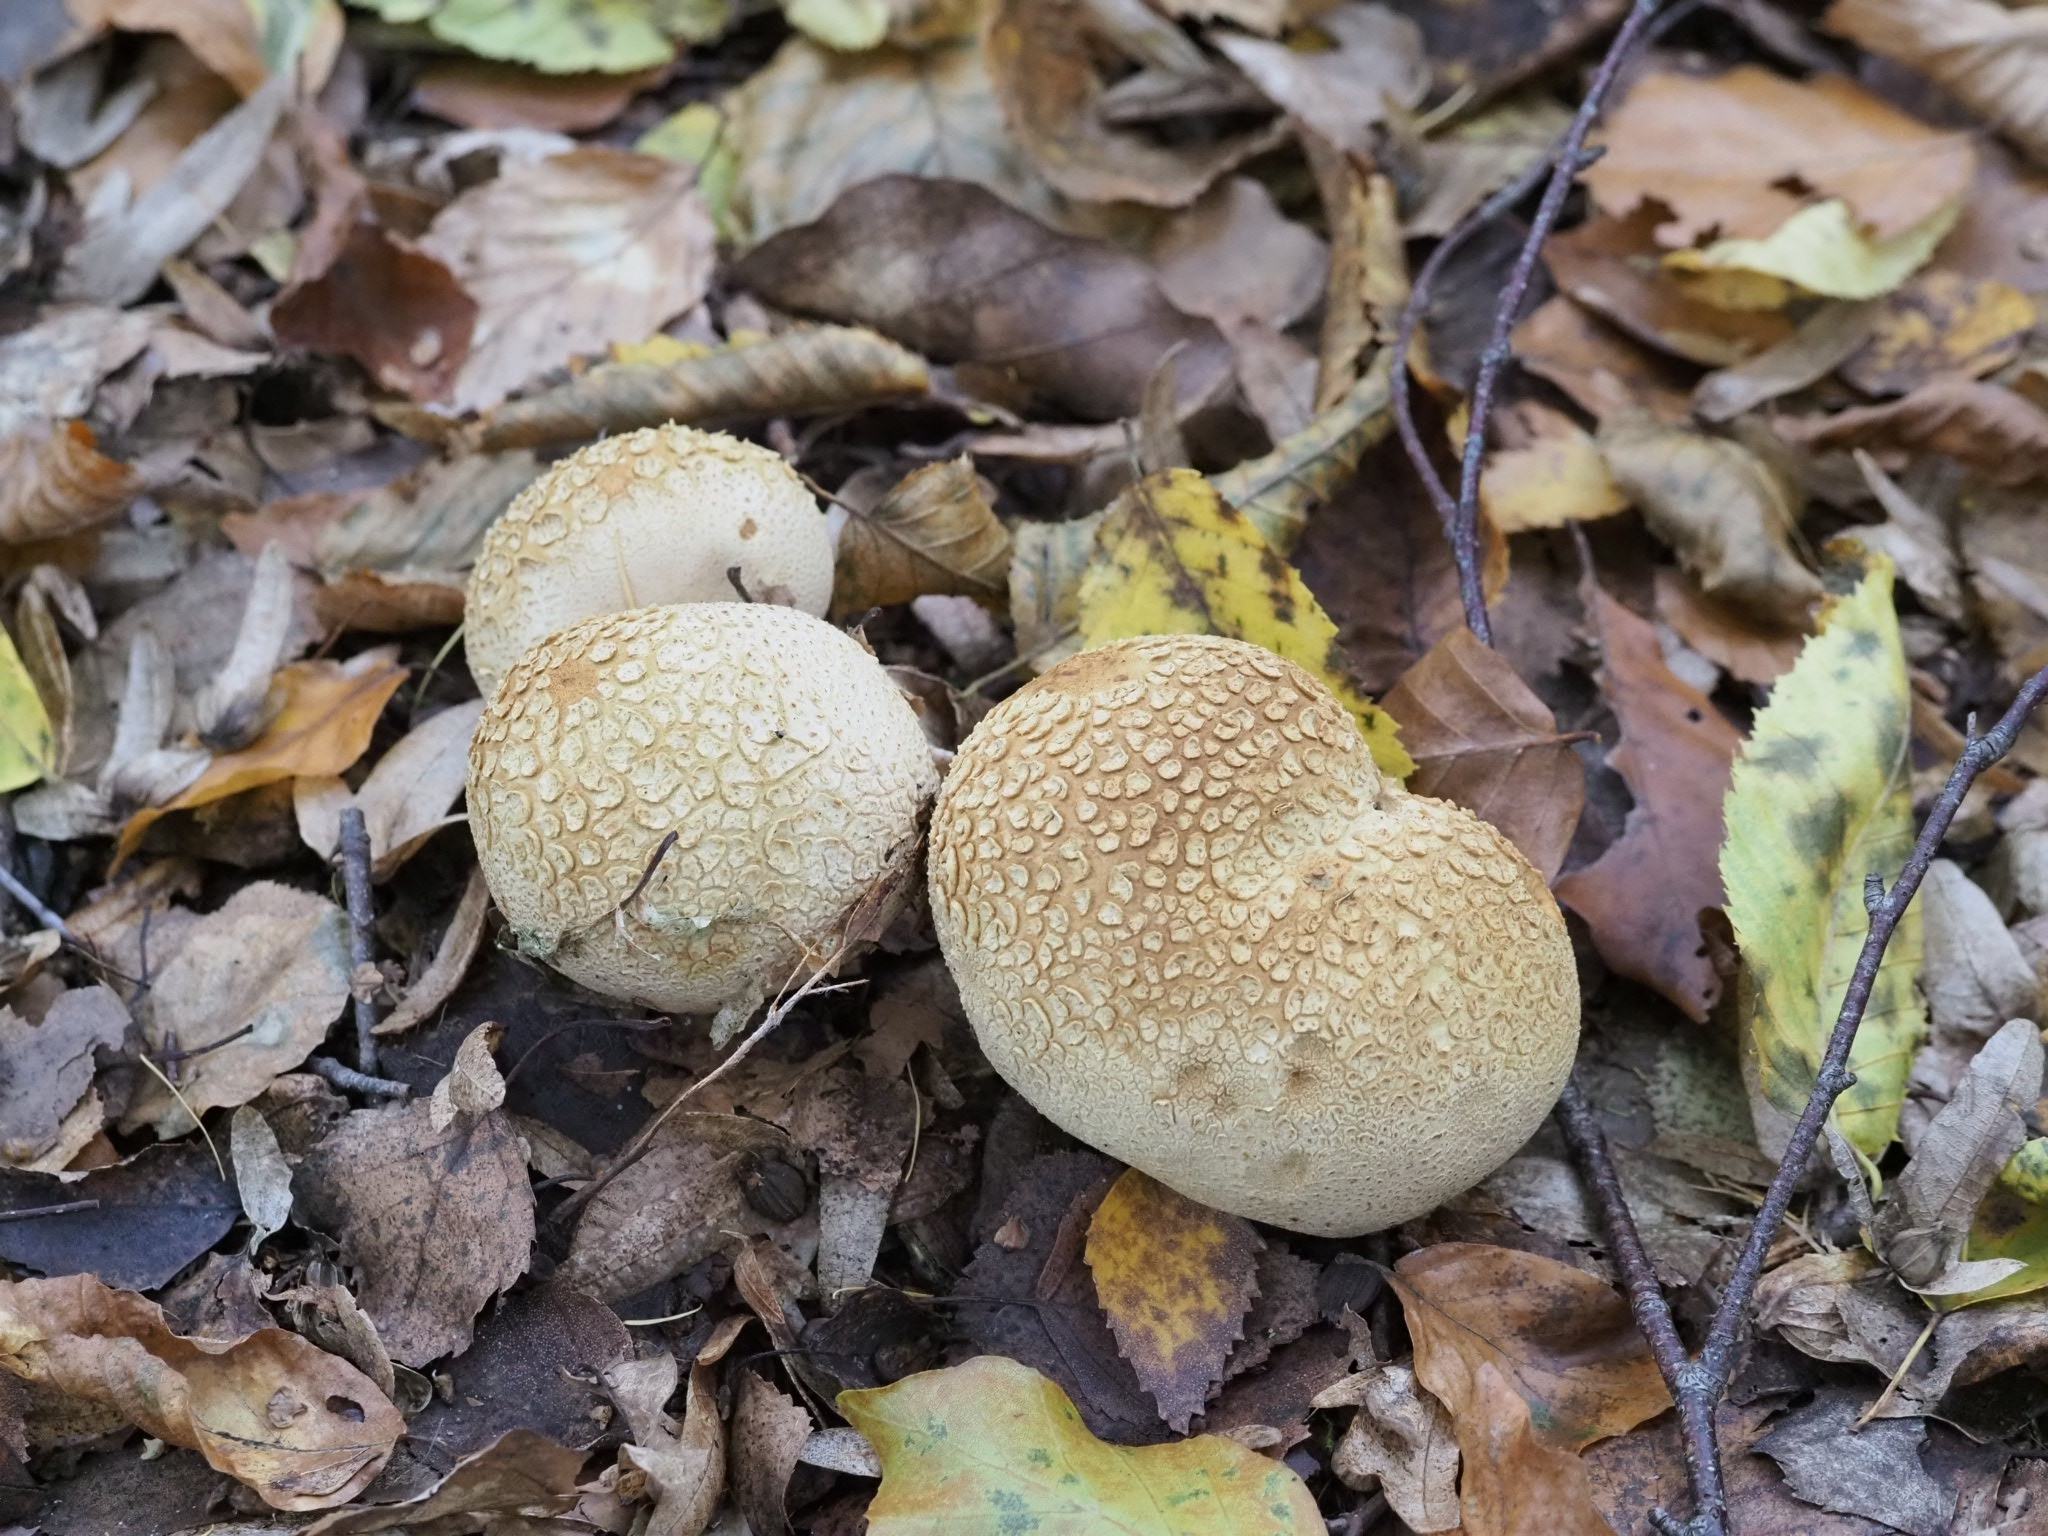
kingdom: Fungi
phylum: Basidiomycota
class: Agaricomycetes
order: Boletales
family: Sclerodermataceae
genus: Scleroderma
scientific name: Scleroderma citrinum
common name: Common earthball
